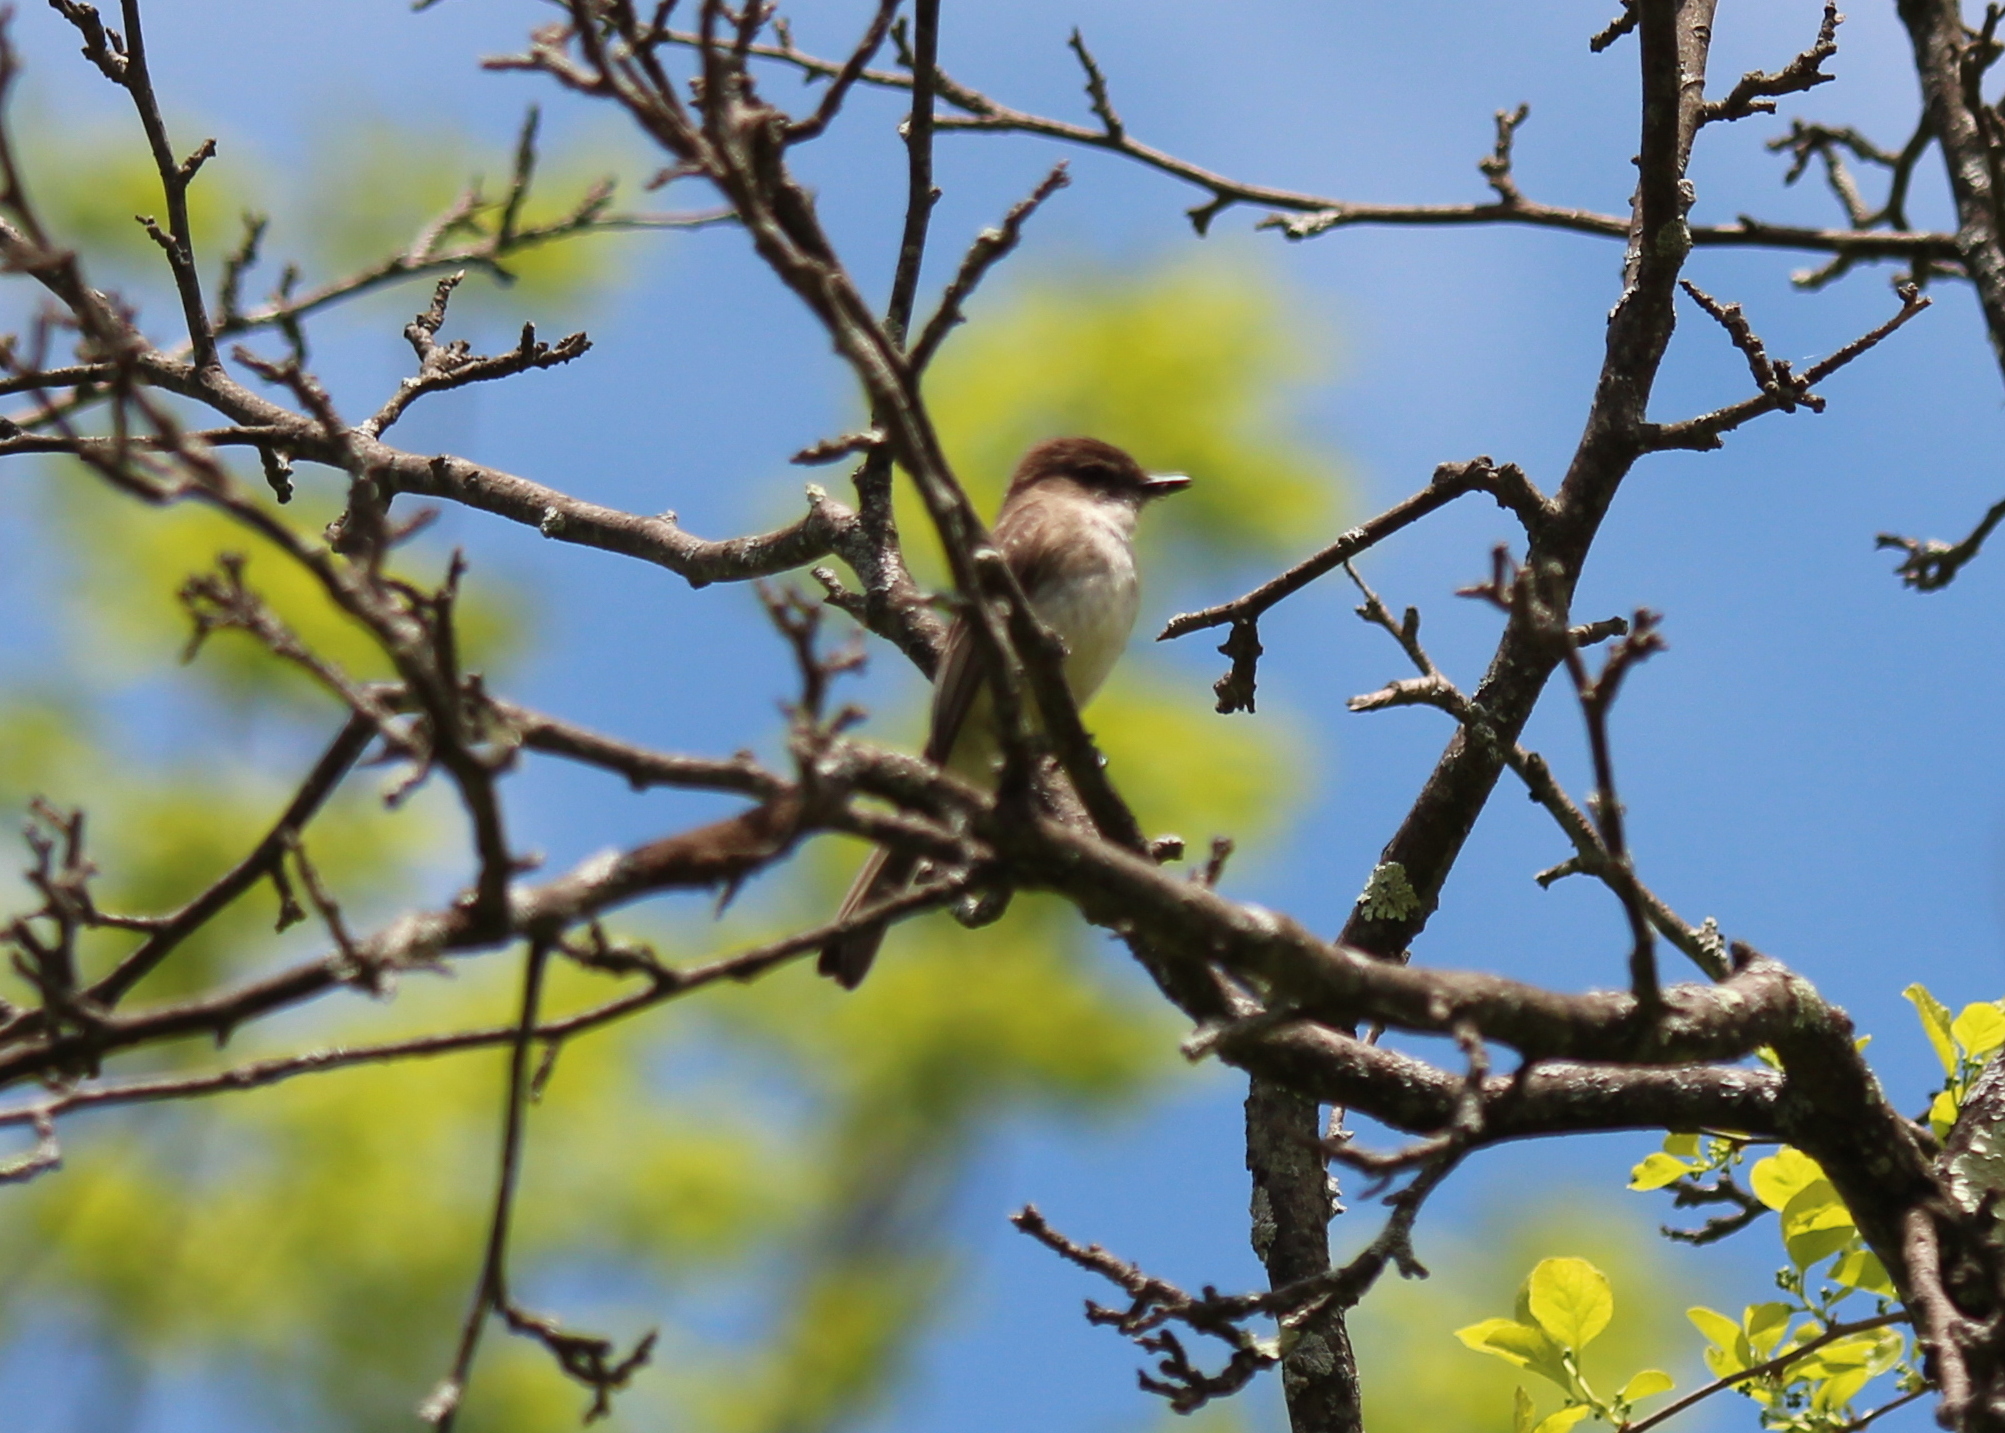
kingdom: Animalia
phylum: Chordata
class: Aves
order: Passeriformes
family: Tyrannidae
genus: Sayornis
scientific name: Sayornis phoebe
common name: Eastern phoebe
